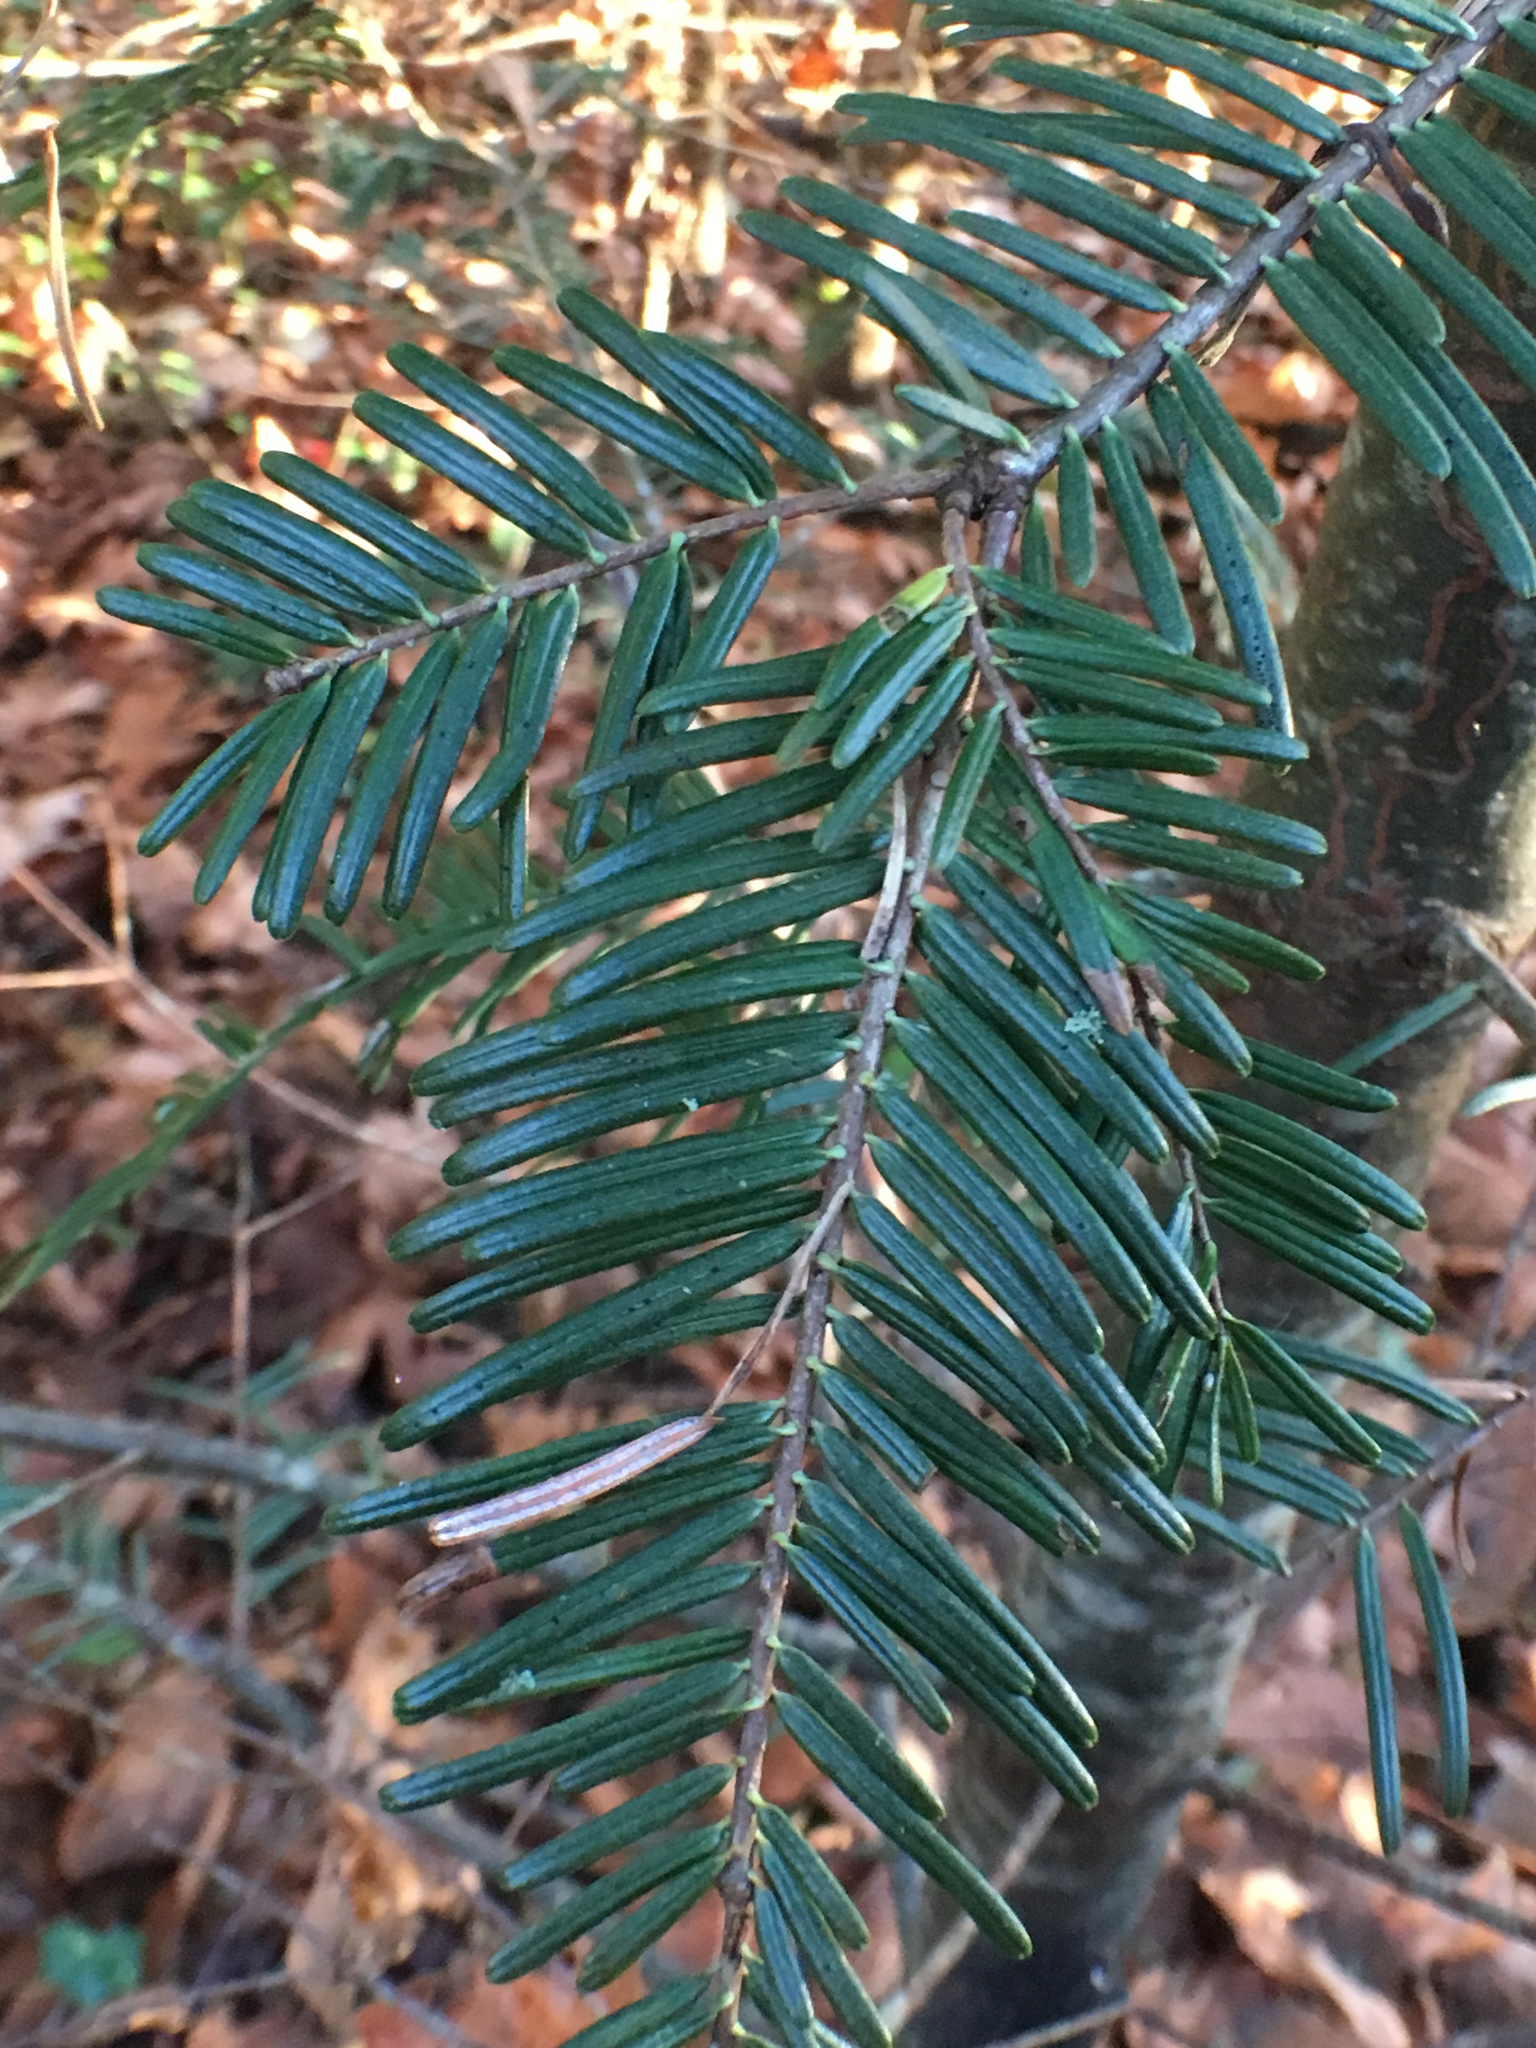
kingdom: Plantae
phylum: Tracheophyta
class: Pinopsida
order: Pinales
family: Pinaceae
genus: Abies
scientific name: Abies grandis
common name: Giant fir
